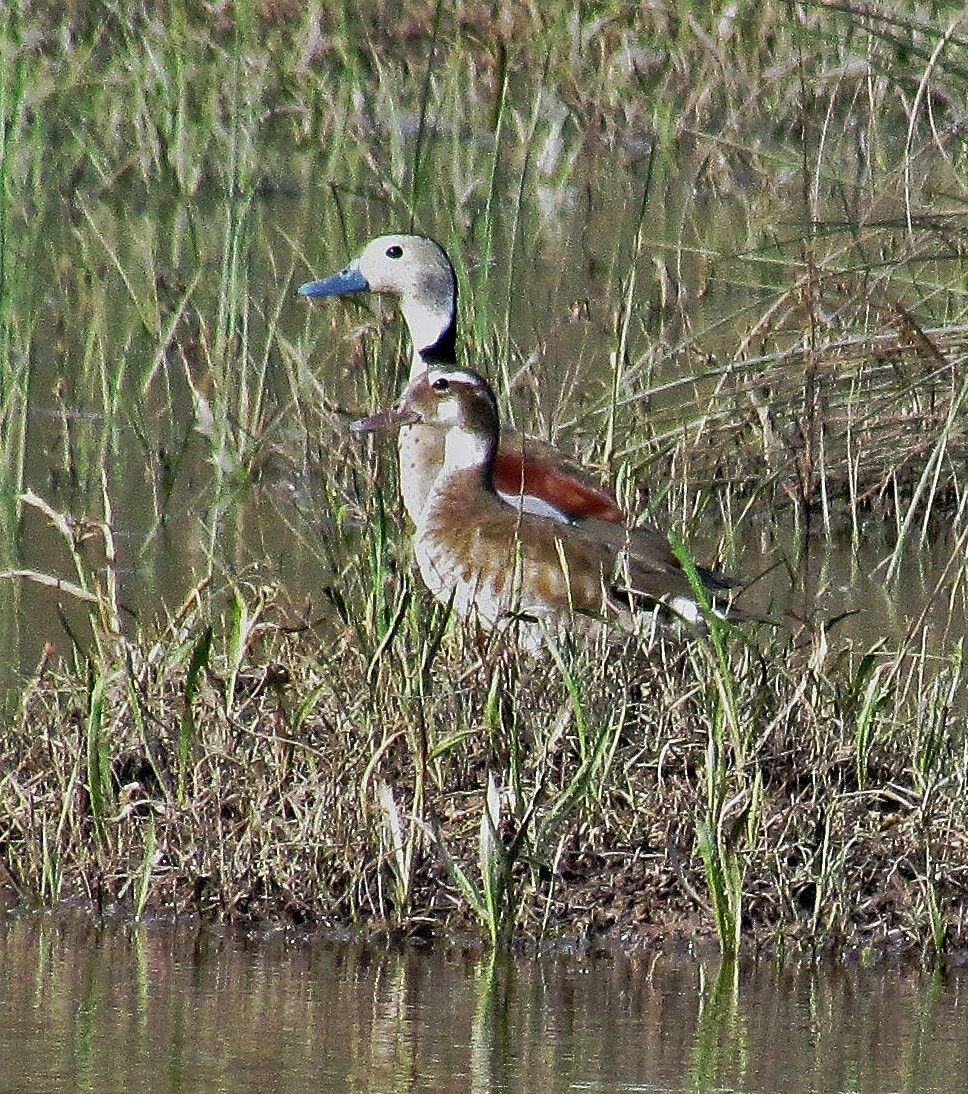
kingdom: Animalia
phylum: Chordata
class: Aves
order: Anseriformes
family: Anatidae
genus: Callonetta
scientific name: Callonetta leucophrys
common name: Ringed teal
